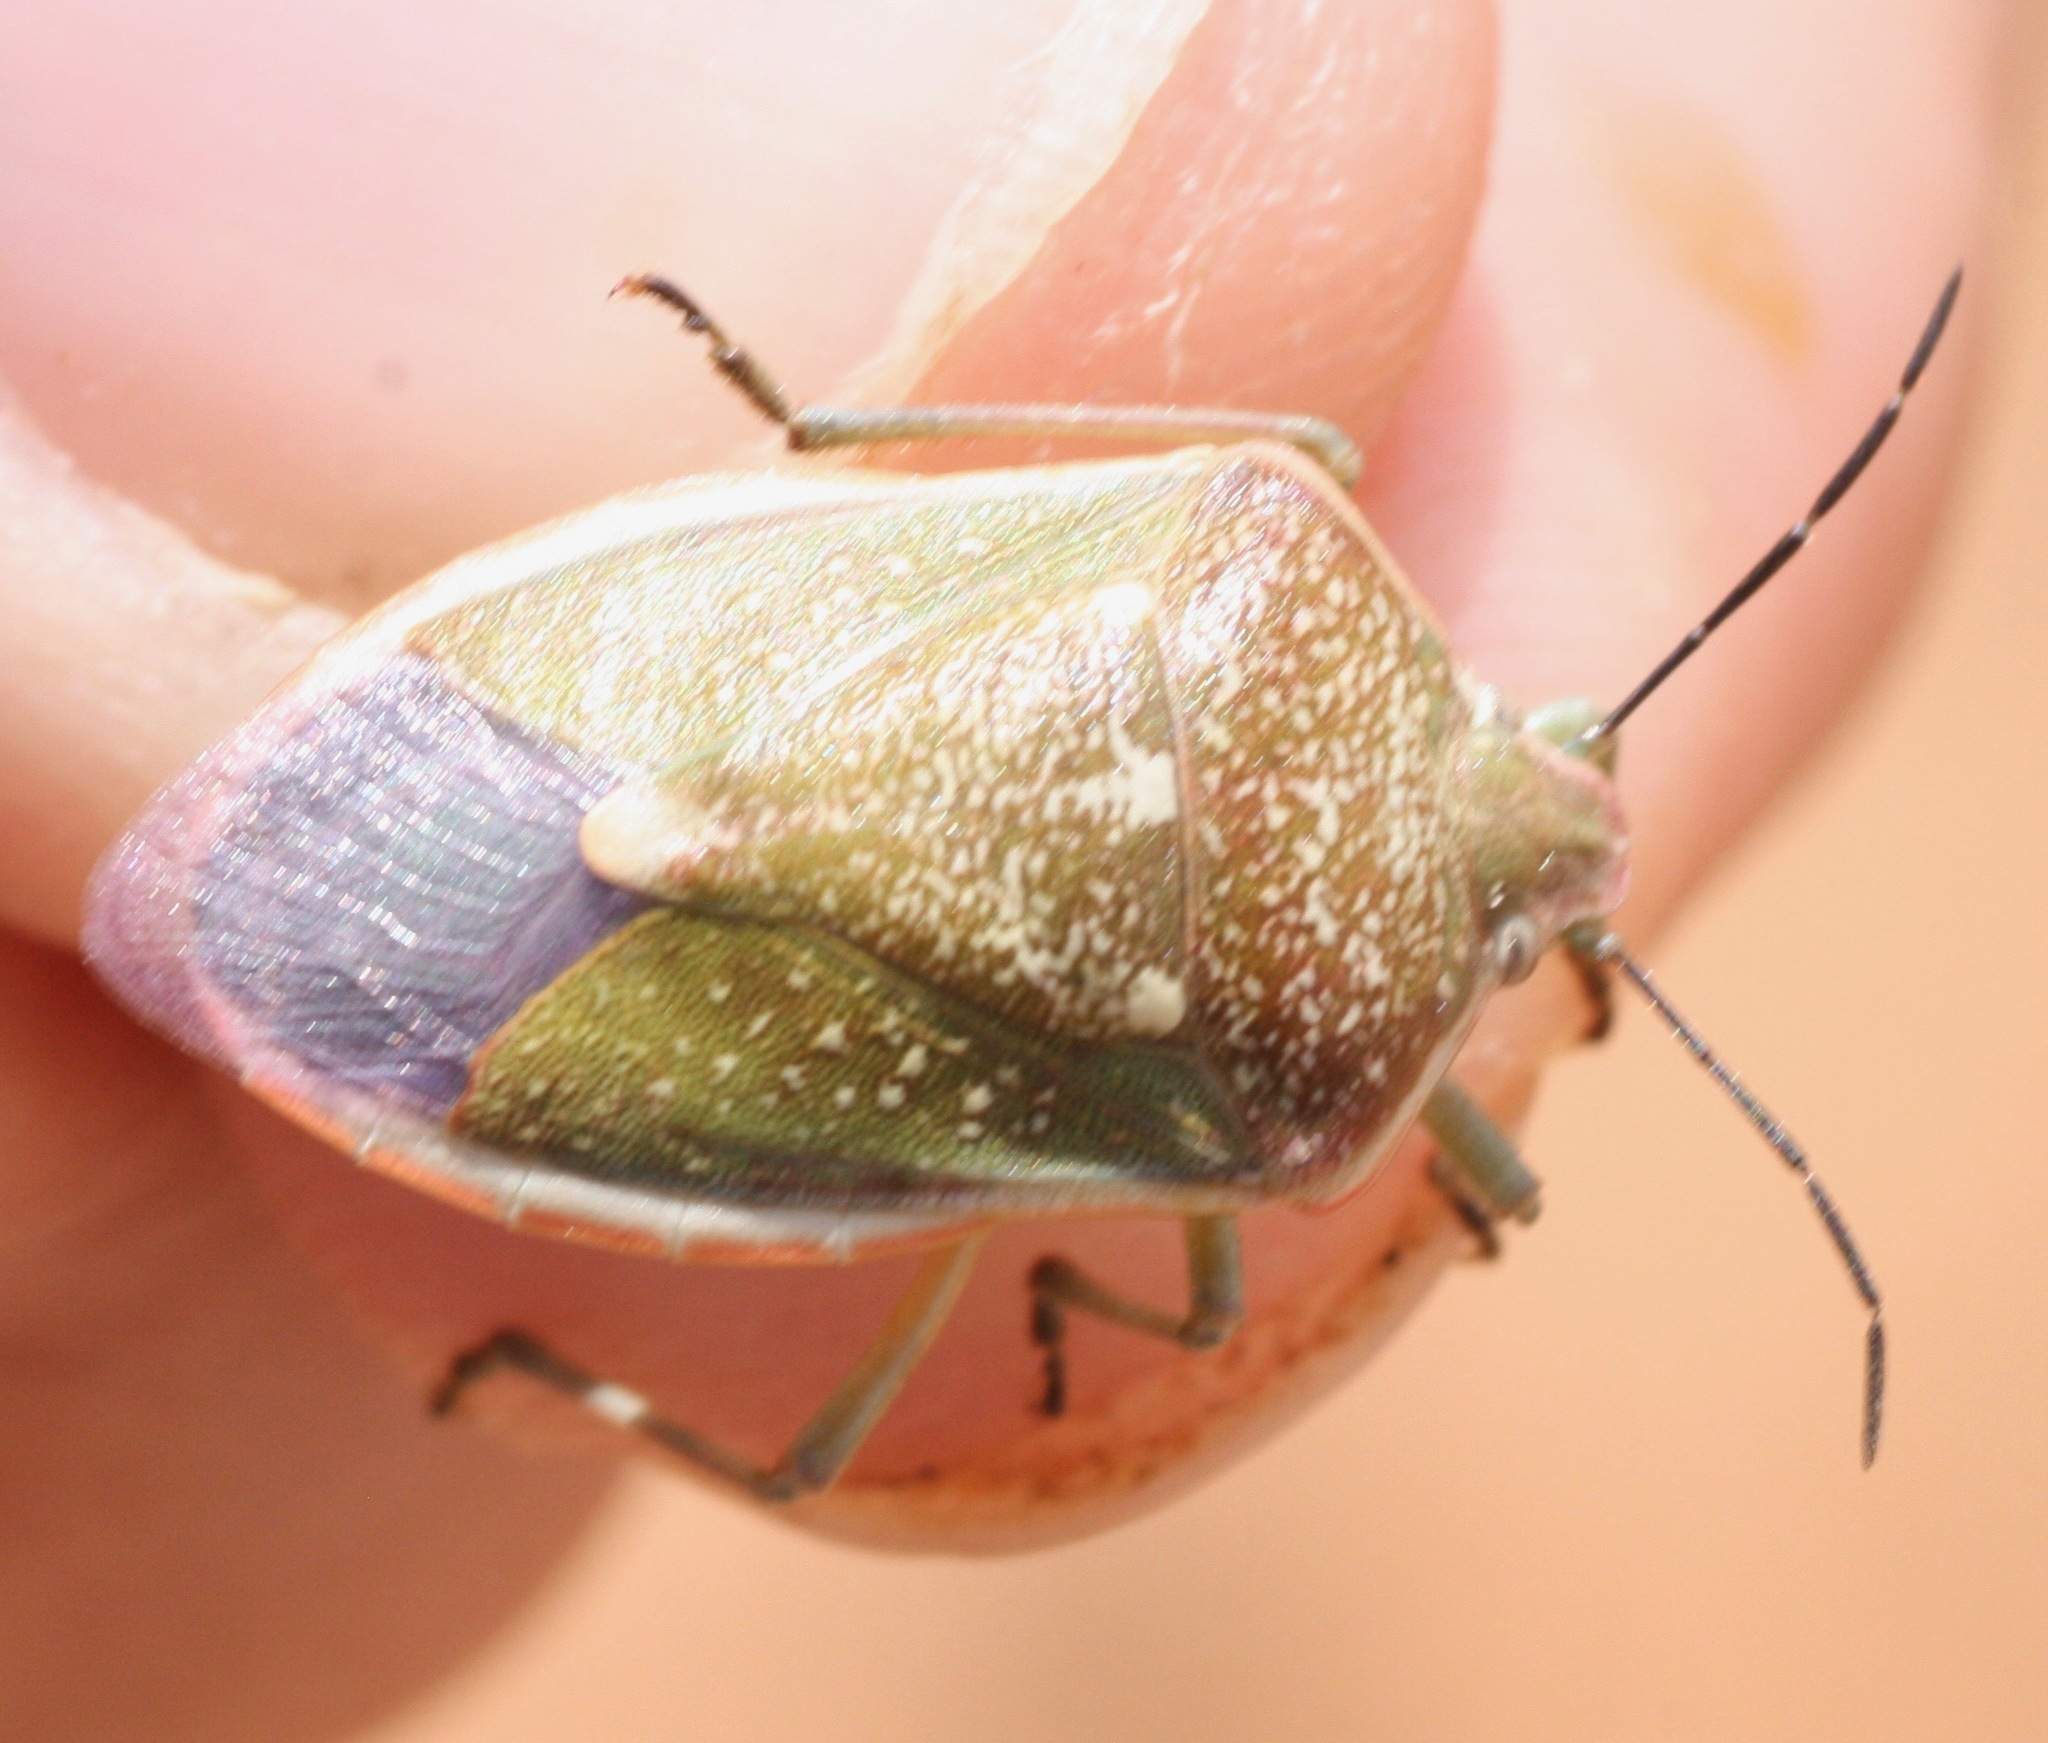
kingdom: Animalia
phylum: Arthropoda
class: Insecta
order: Hemiptera
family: Pentatomidae
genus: Chlorochroa
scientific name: Chlorochroa sayi
